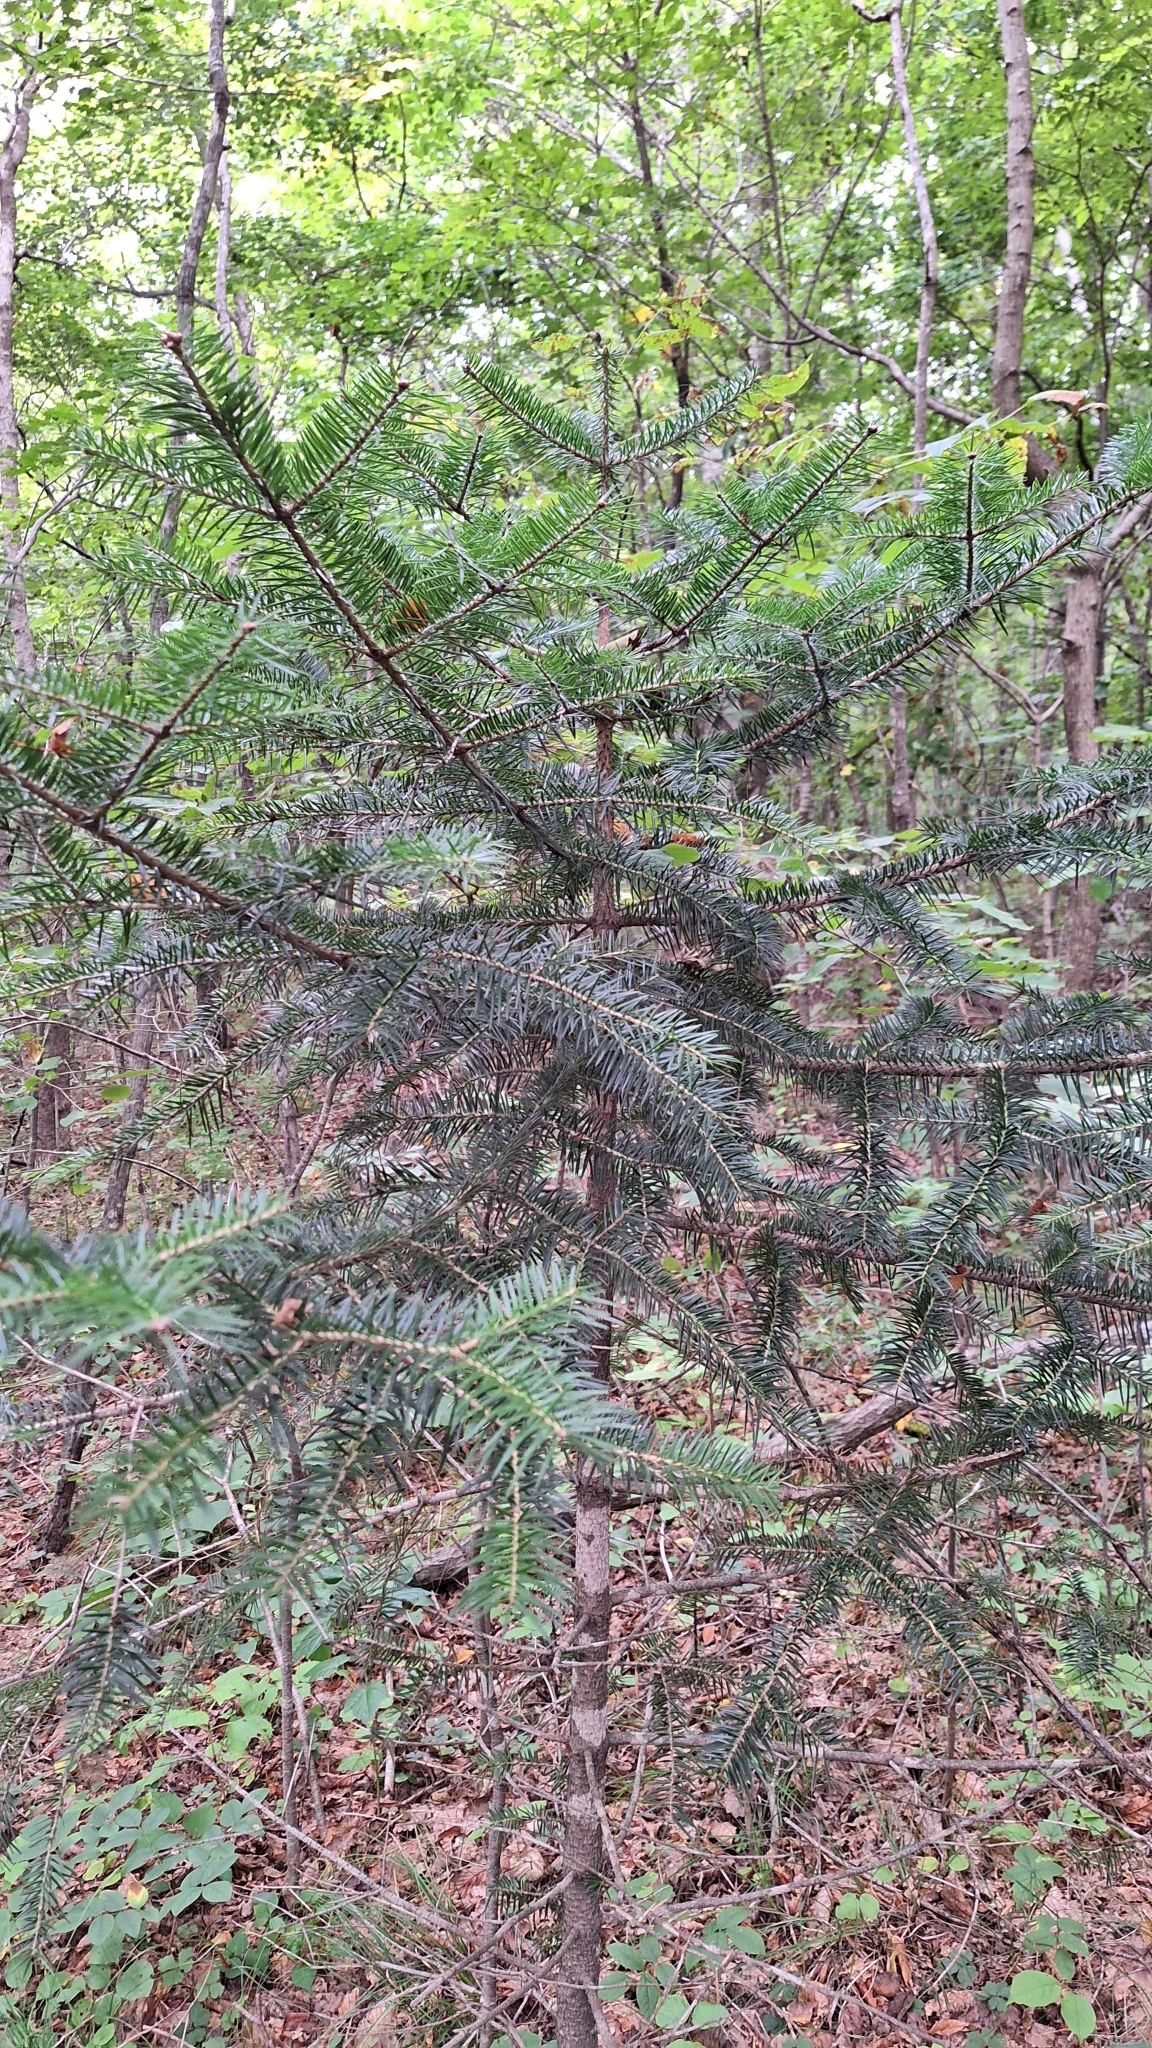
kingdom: Plantae
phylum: Tracheophyta
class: Pinopsida
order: Pinales
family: Pinaceae
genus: Abies
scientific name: Abies holophylla
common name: Manchurian fir
